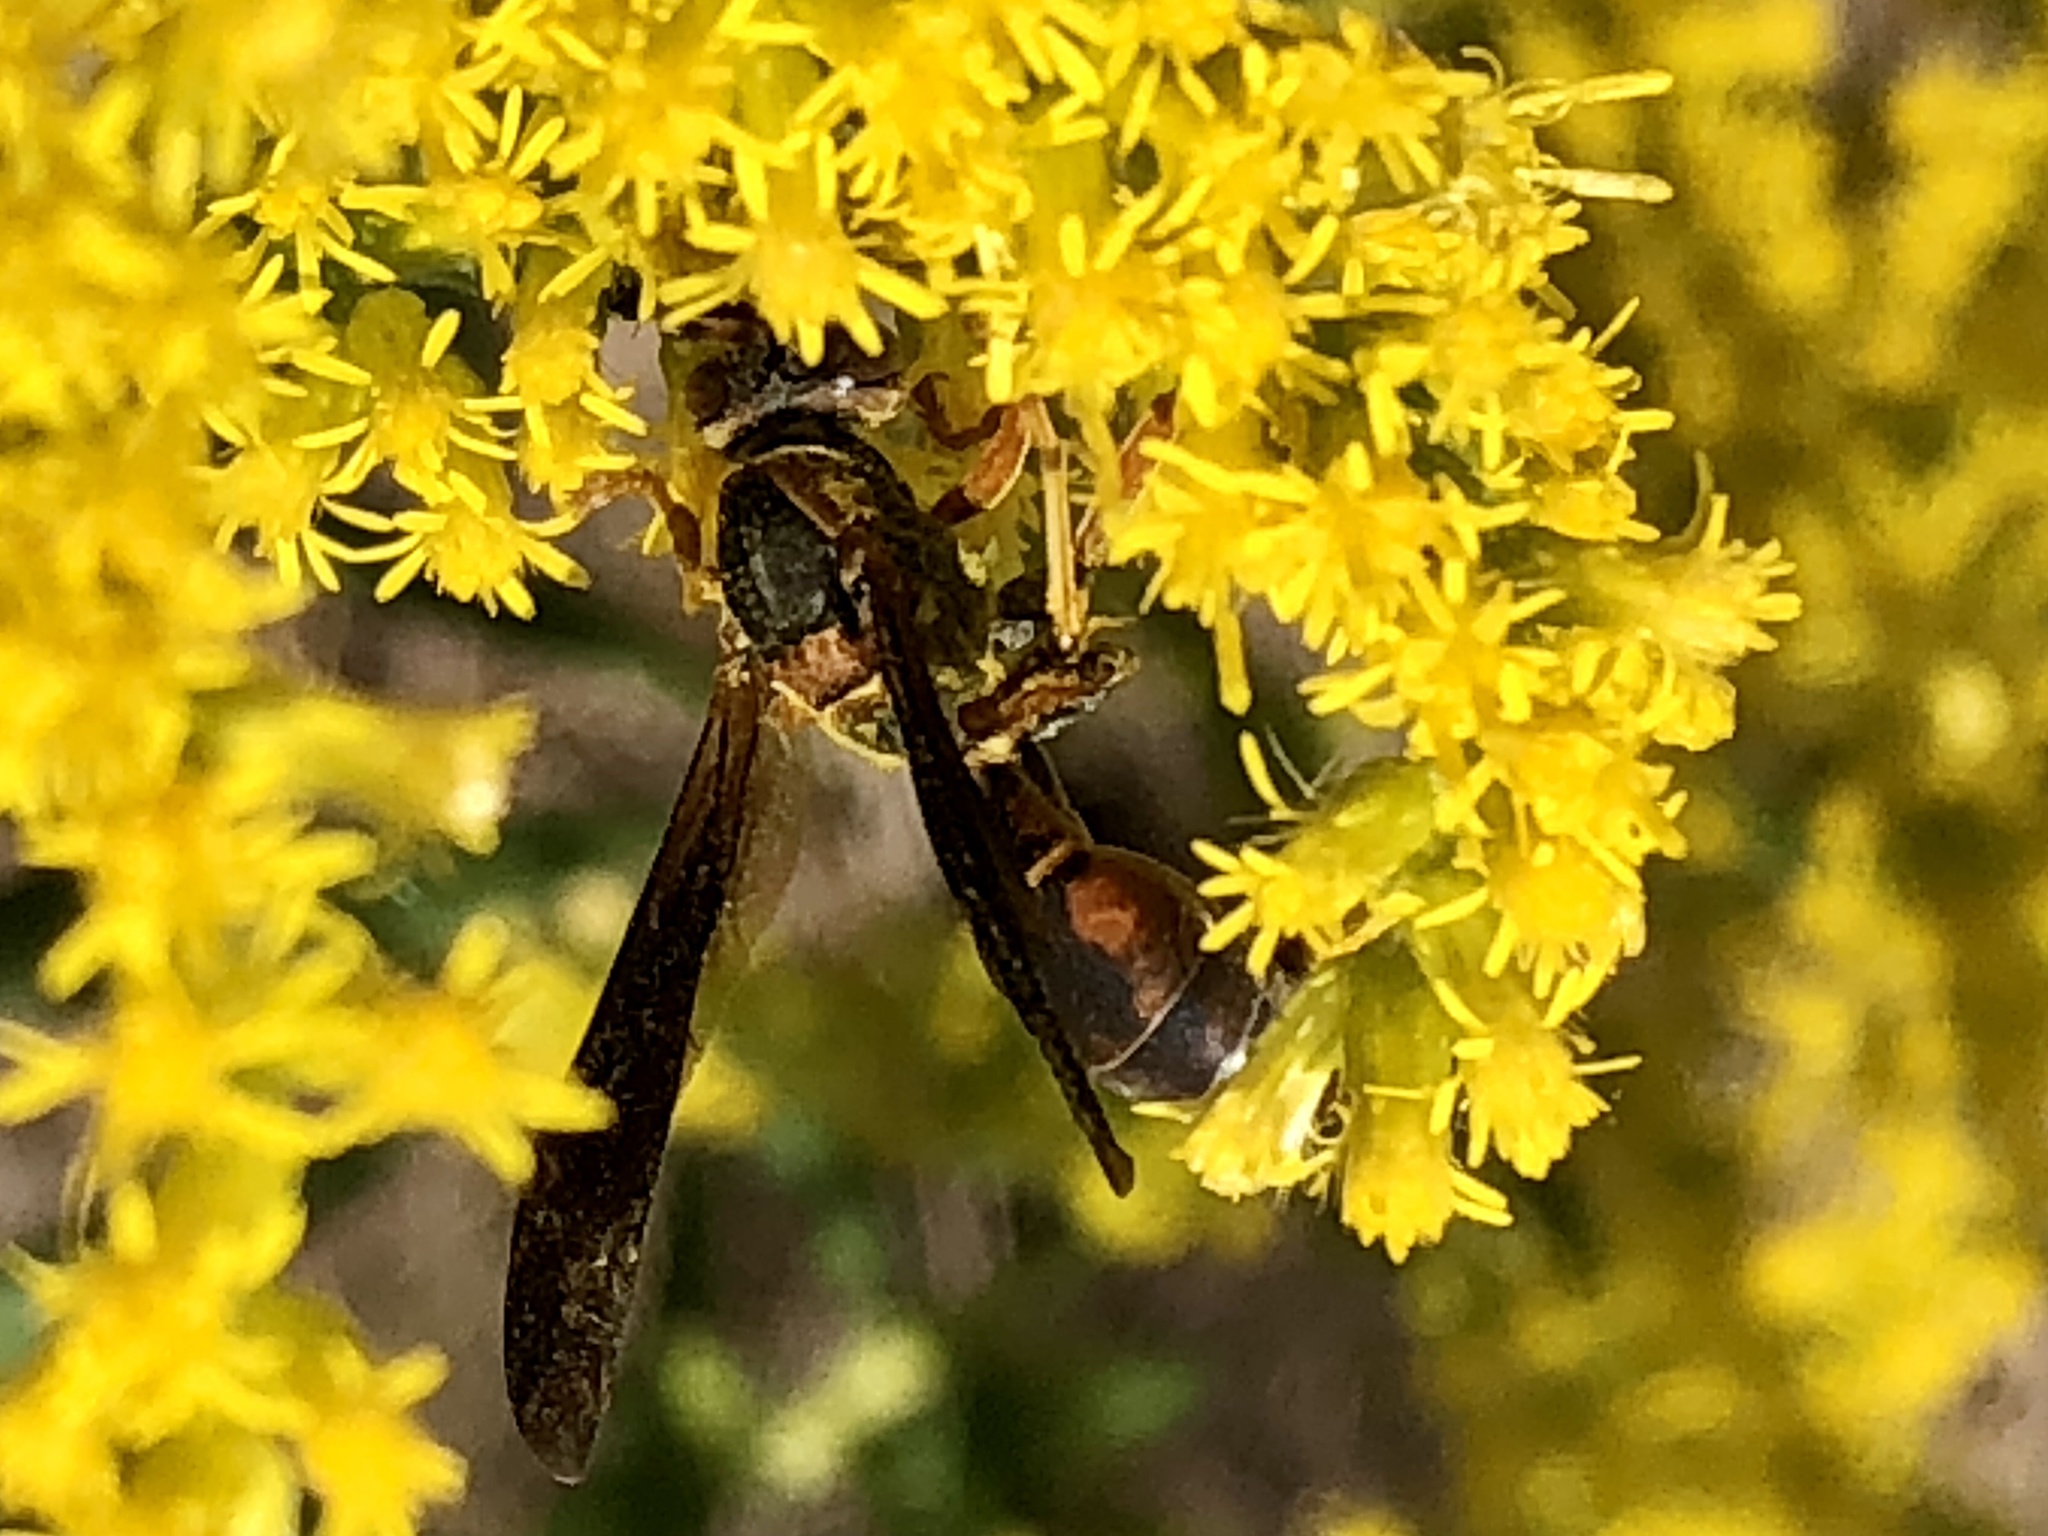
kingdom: Animalia
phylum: Arthropoda
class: Insecta
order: Hymenoptera
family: Eumenidae
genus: Polistes
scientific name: Polistes fuscatus
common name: Dark paper wasp
